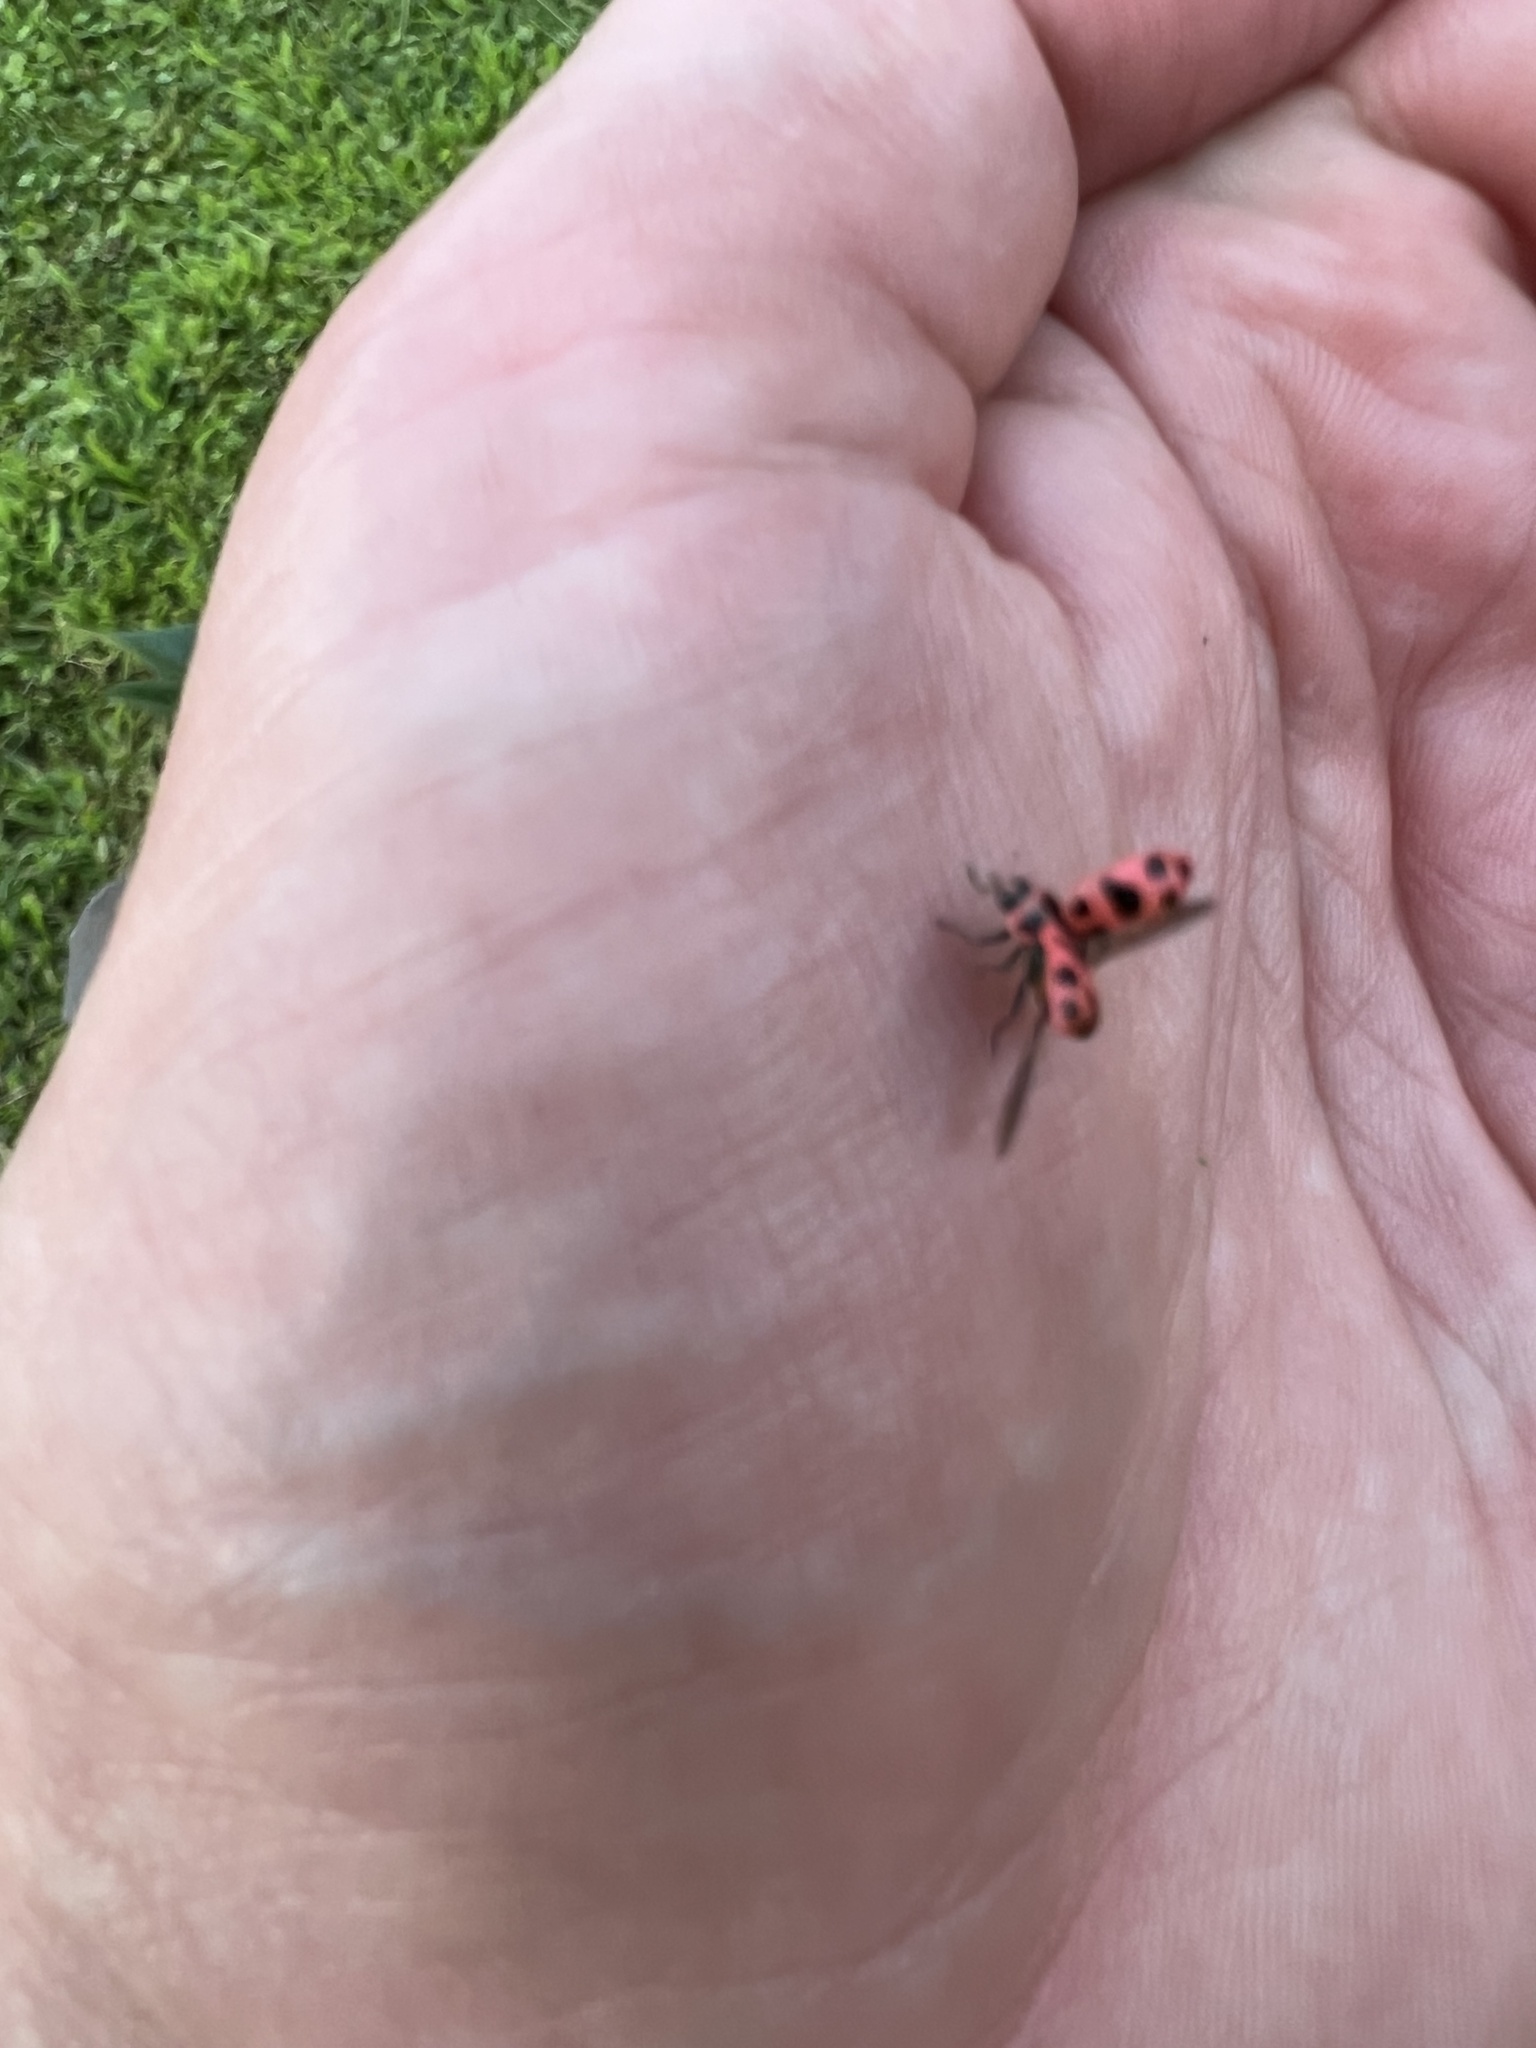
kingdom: Animalia
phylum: Arthropoda
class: Insecta
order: Coleoptera
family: Coccinellidae
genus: Coleomegilla
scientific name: Coleomegilla maculata
